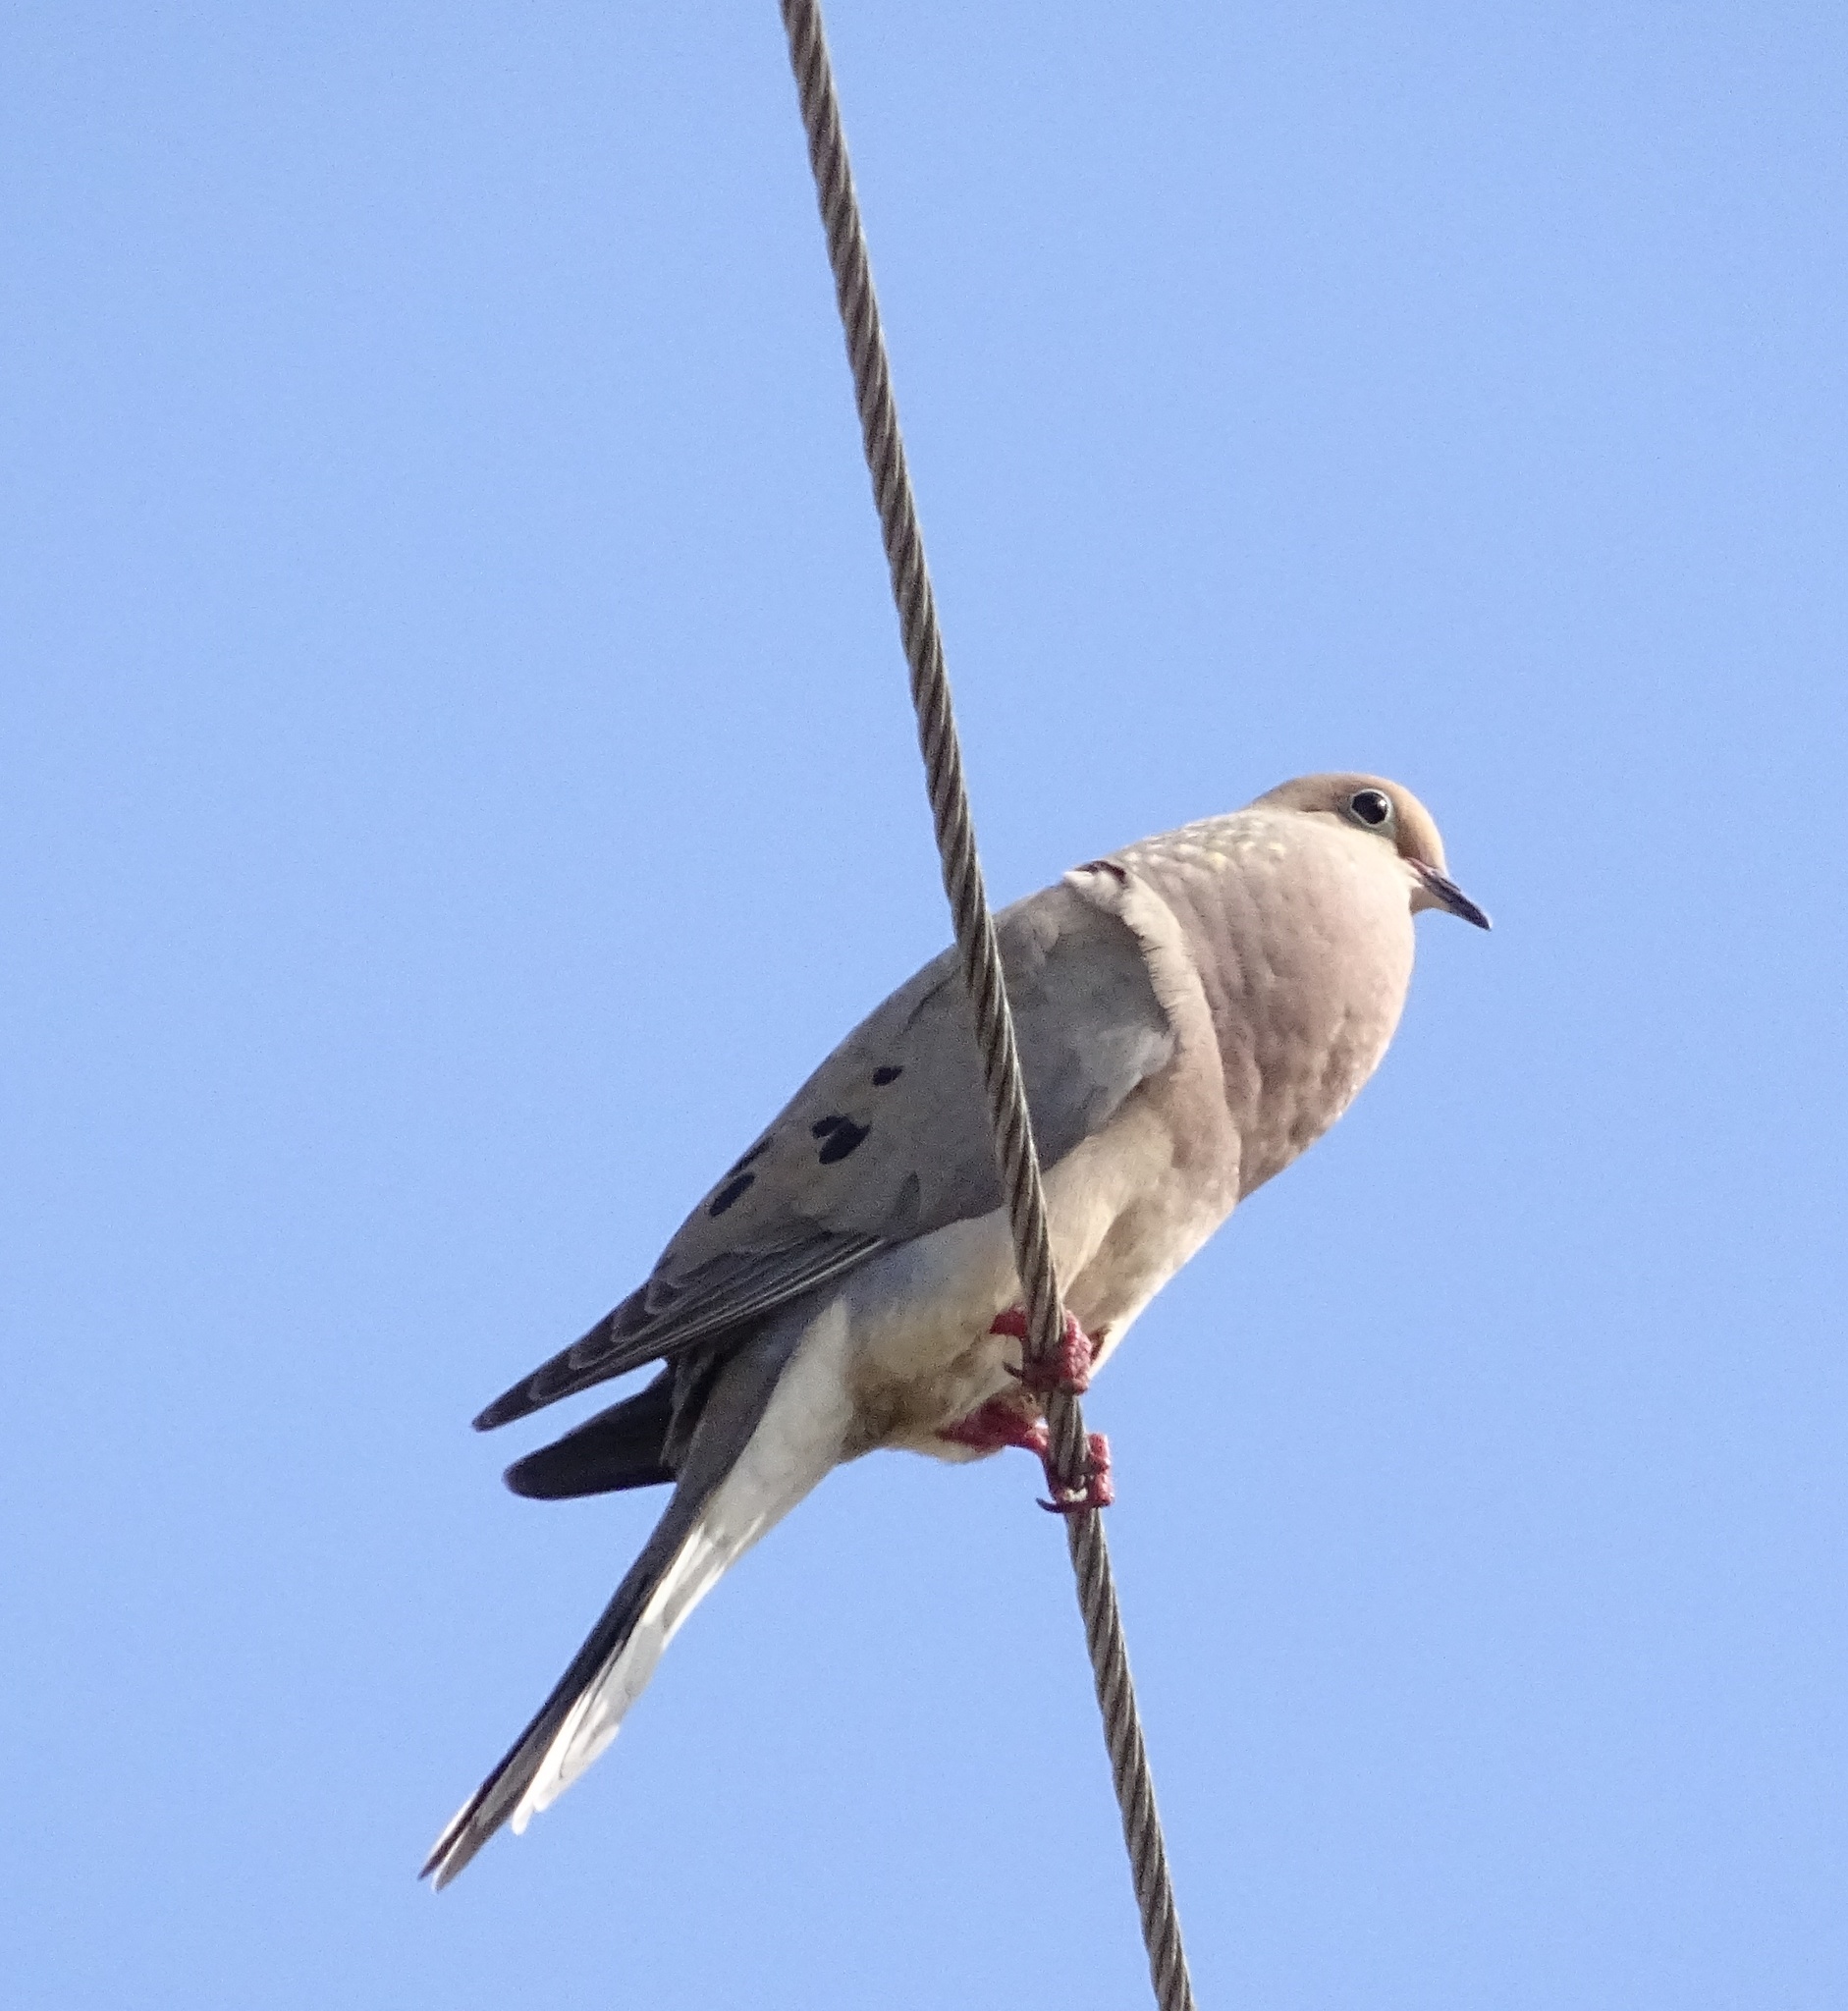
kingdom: Animalia
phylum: Chordata
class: Aves
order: Columbiformes
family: Columbidae
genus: Zenaida
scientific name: Zenaida macroura
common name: Mourning dove
